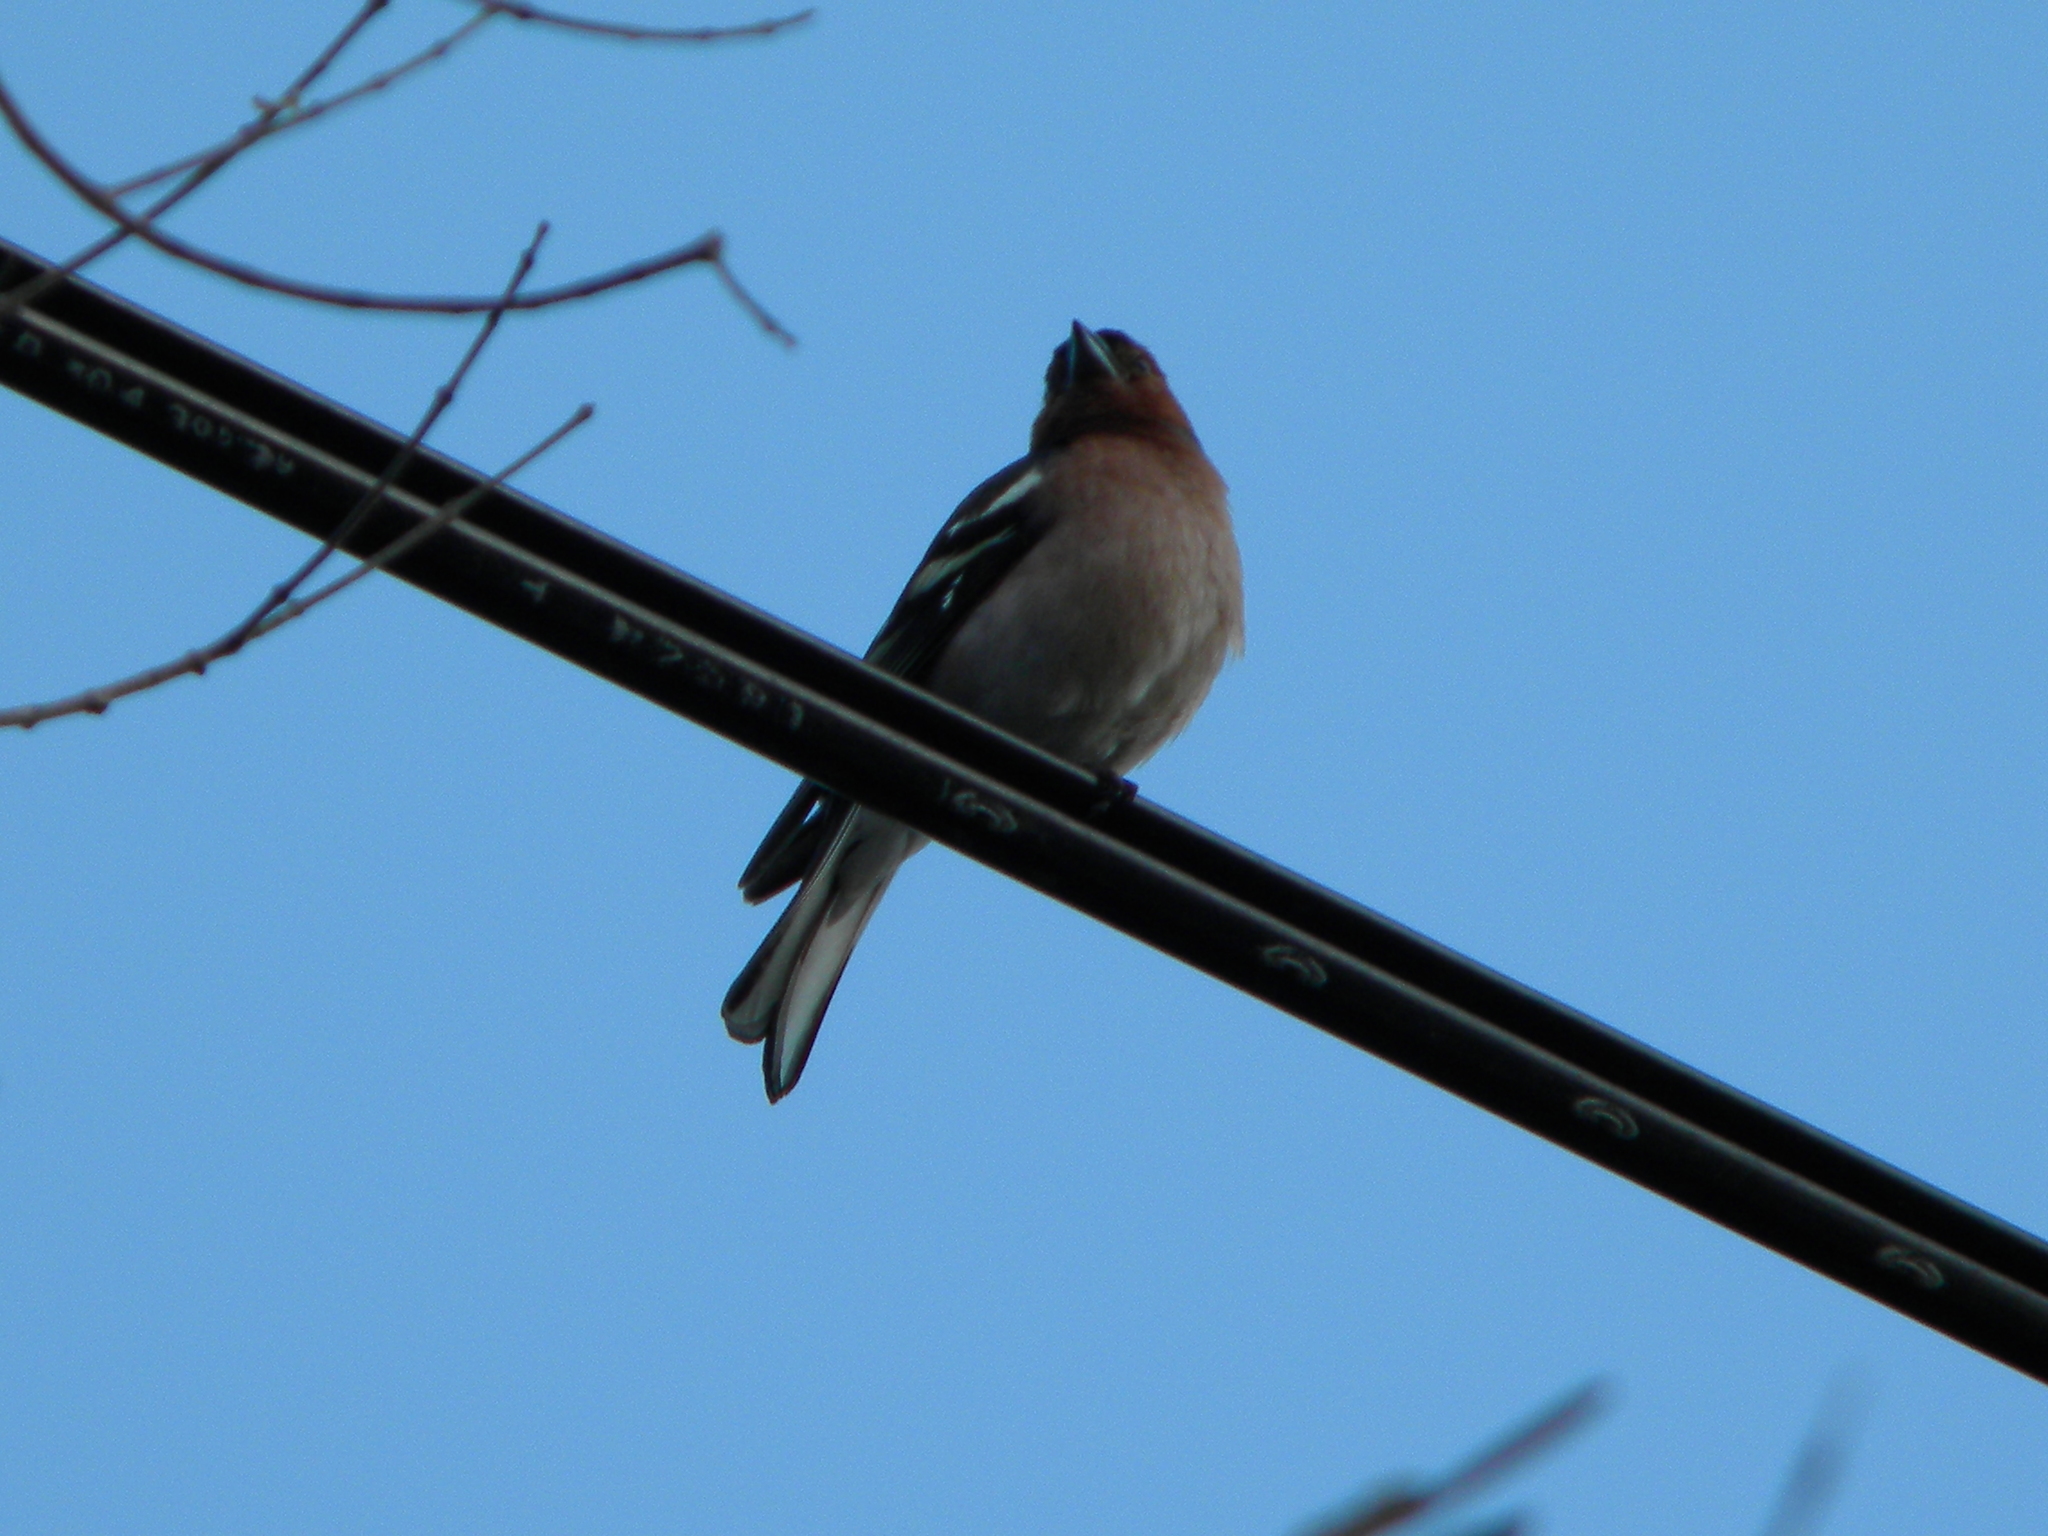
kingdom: Animalia
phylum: Chordata
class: Aves
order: Passeriformes
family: Fringillidae
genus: Fringilla
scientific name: Fringilla coelebs
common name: Common chaffinch
